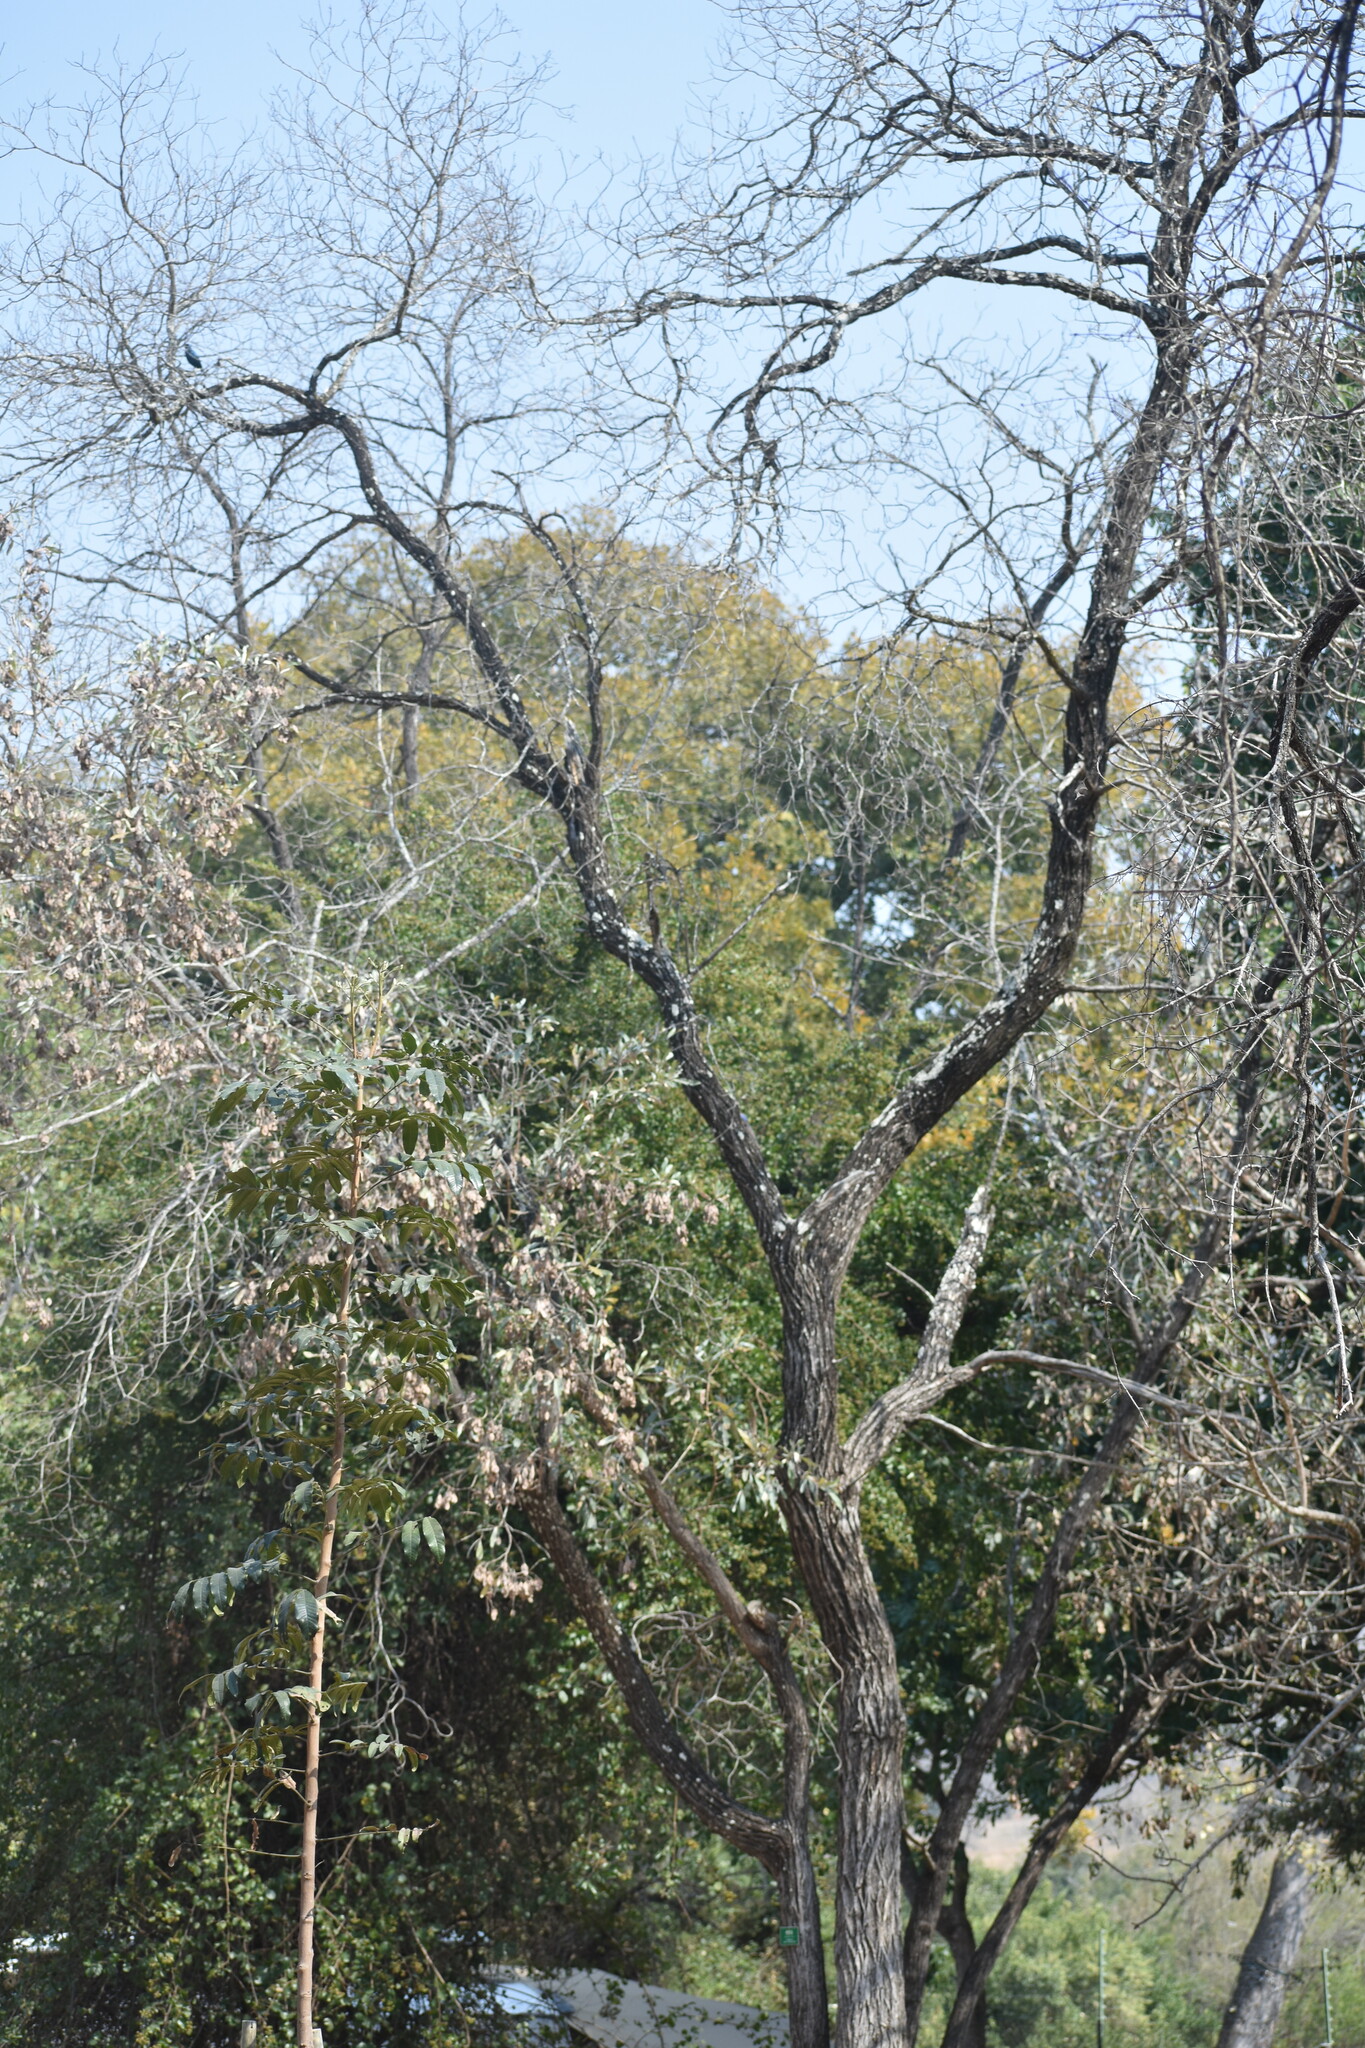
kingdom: Plantae
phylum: Tracheophyta
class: Magnoliopsida
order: Myrtales
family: Combretaceae
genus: Terminalia
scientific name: Terminalia sericea
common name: Clusterleaf
